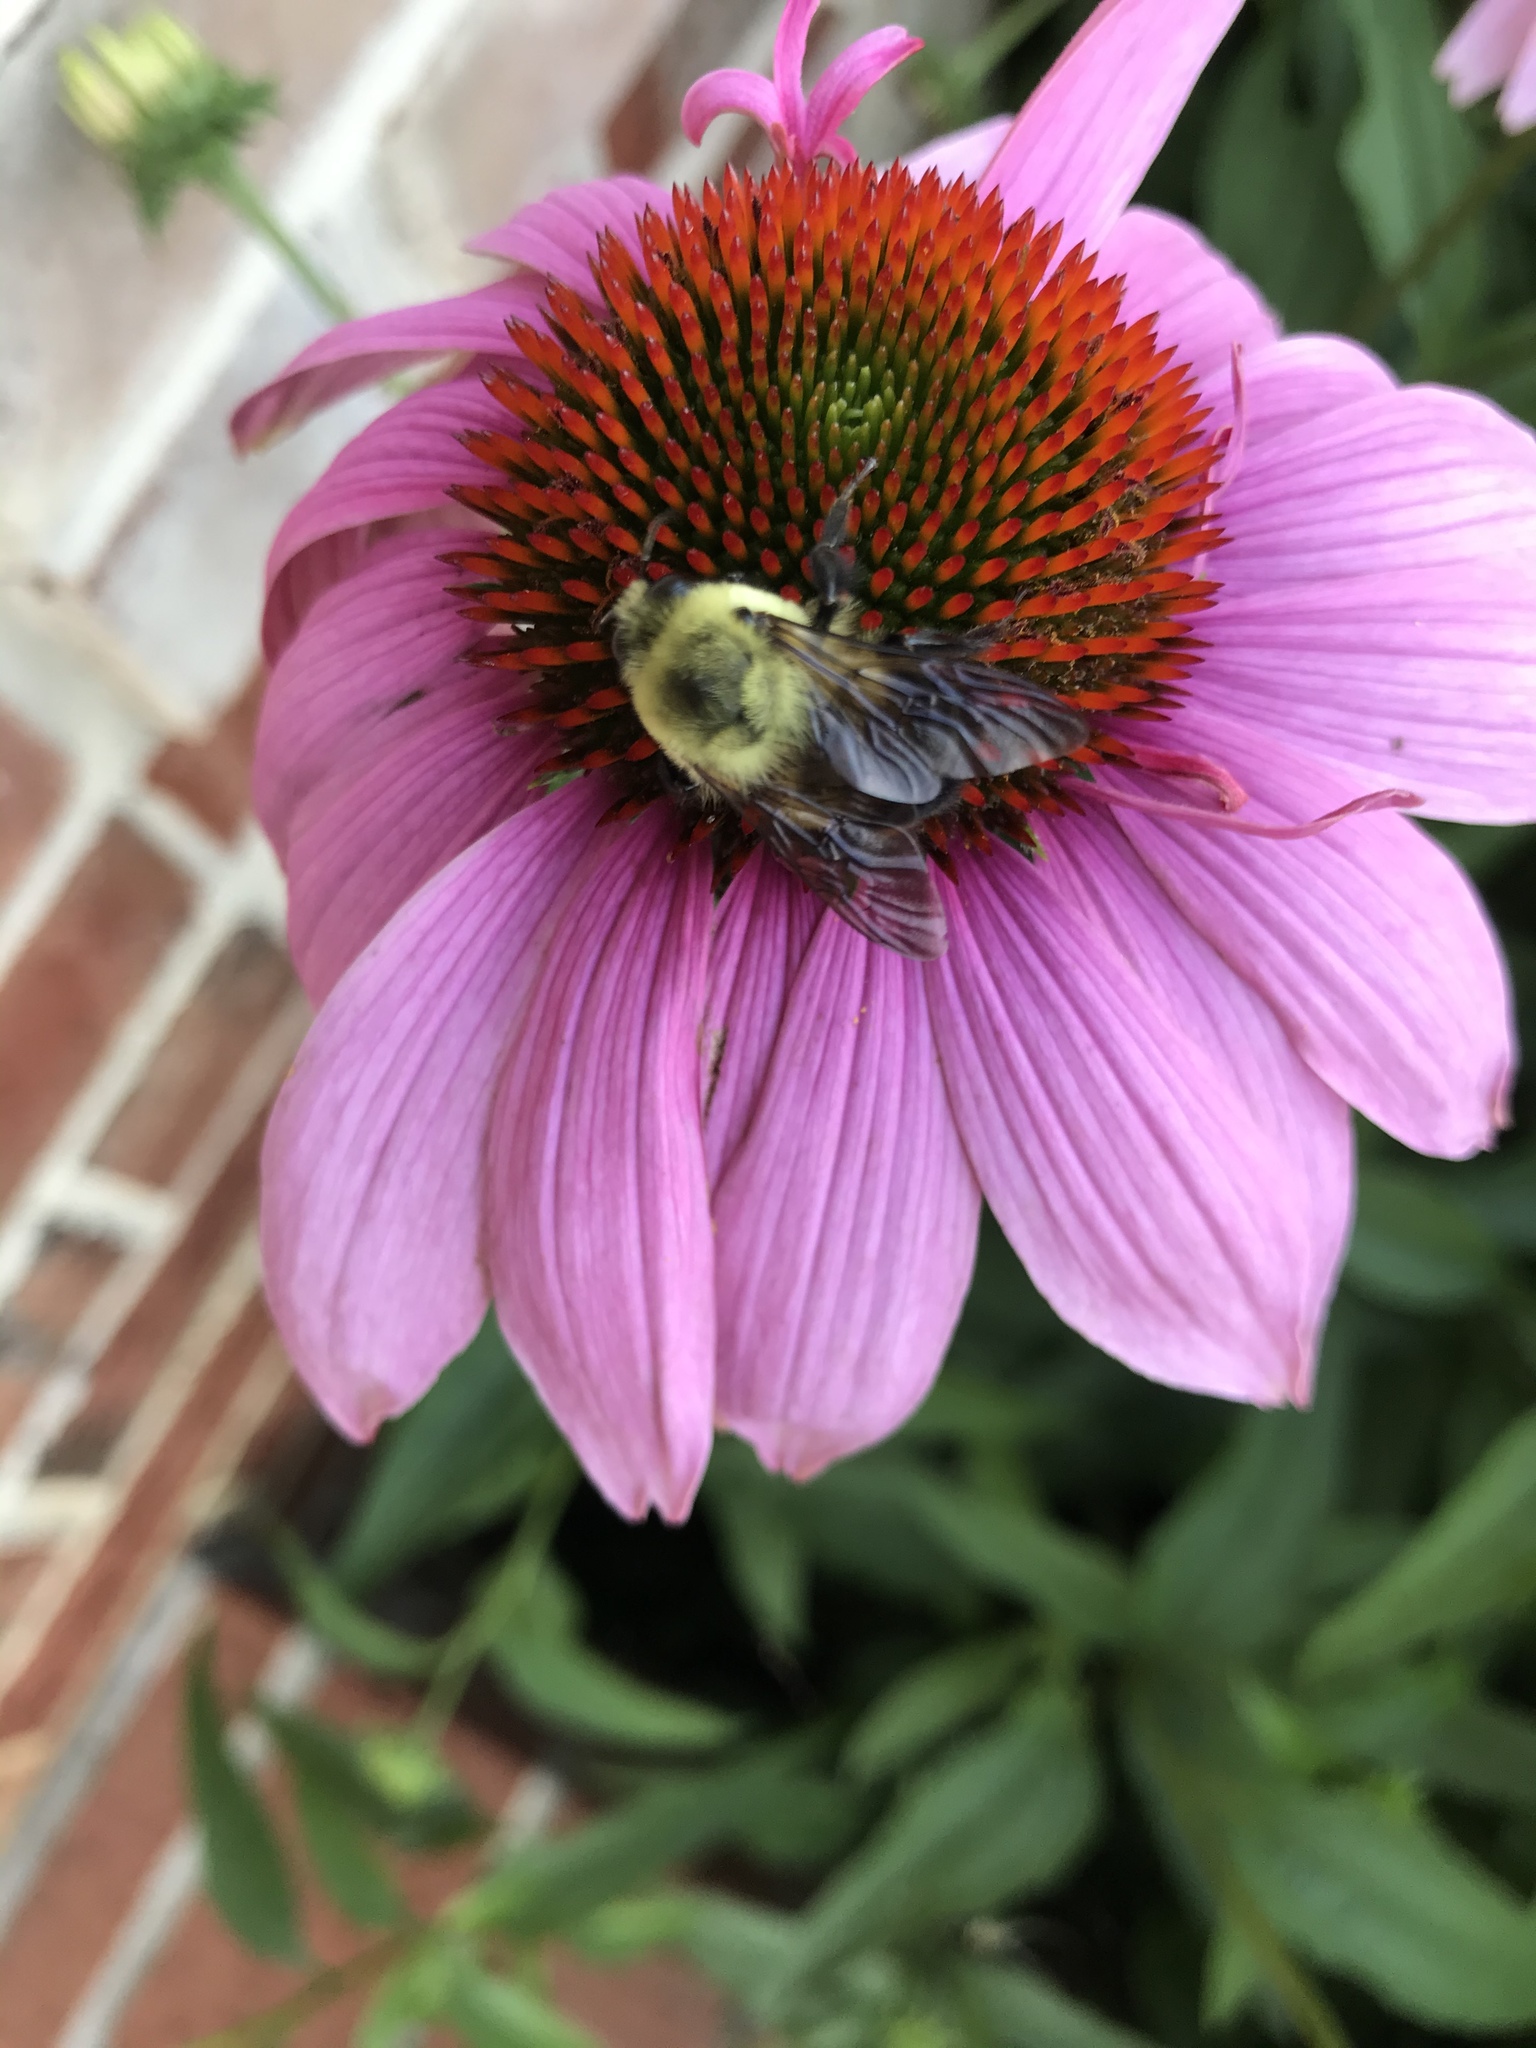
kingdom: Animalia
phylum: Arthropoda
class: Insecta
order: Hymenoptera
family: Apidae
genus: Bombus
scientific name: Bombus griseocollis
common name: Brown-belted bumble bee
